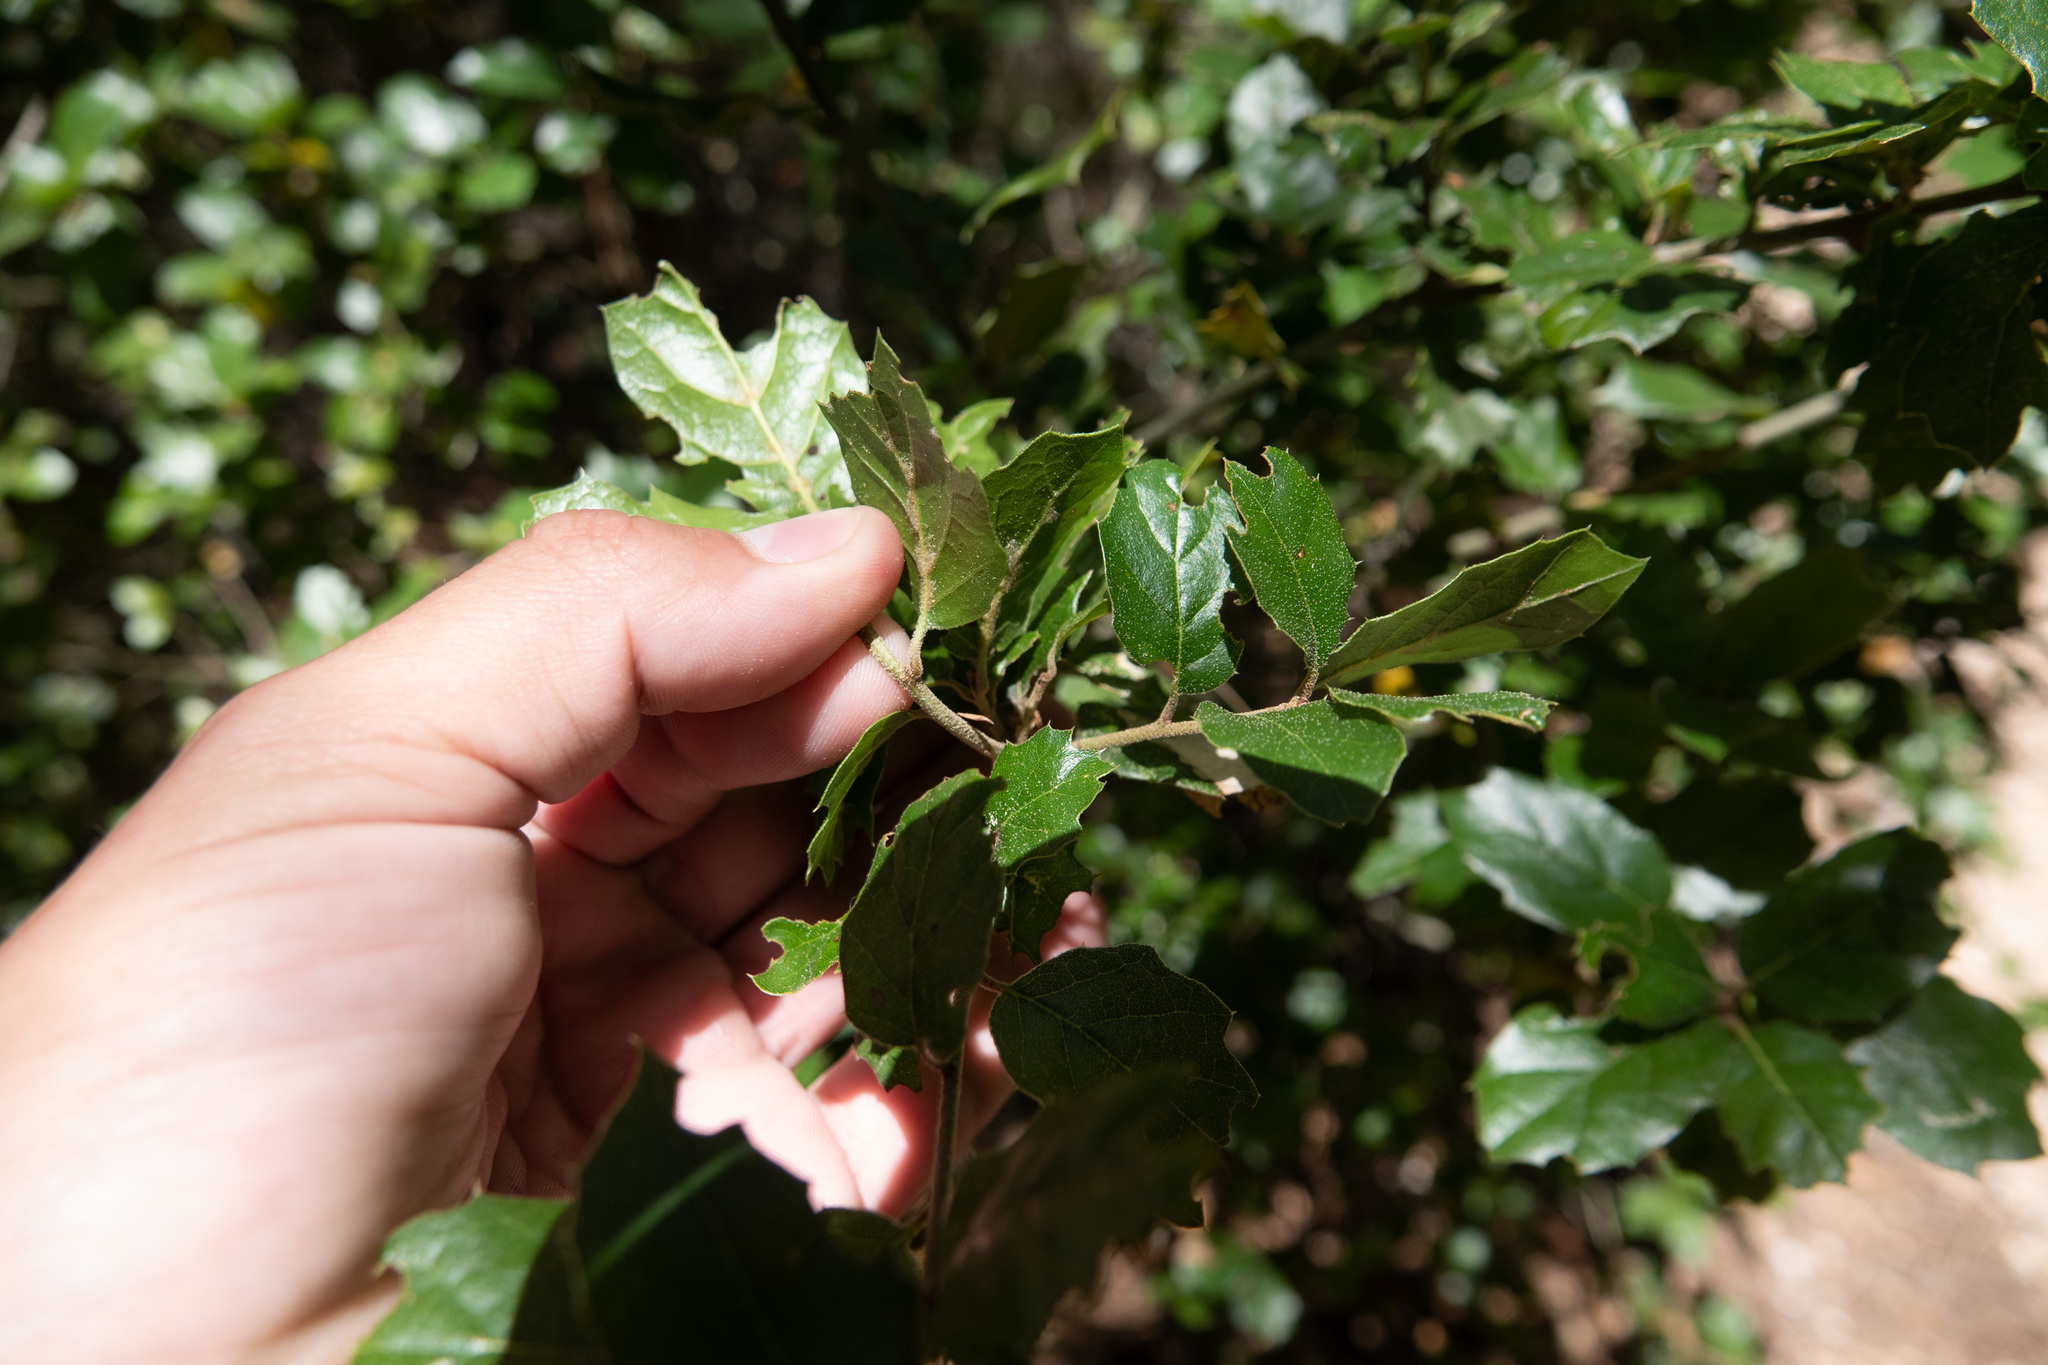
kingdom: Plantae
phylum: Tracheophyta
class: Magnoliopsida
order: Fagales
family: Fagaceae
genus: Quercus
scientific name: Quercus agrifolia
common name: California live oak
